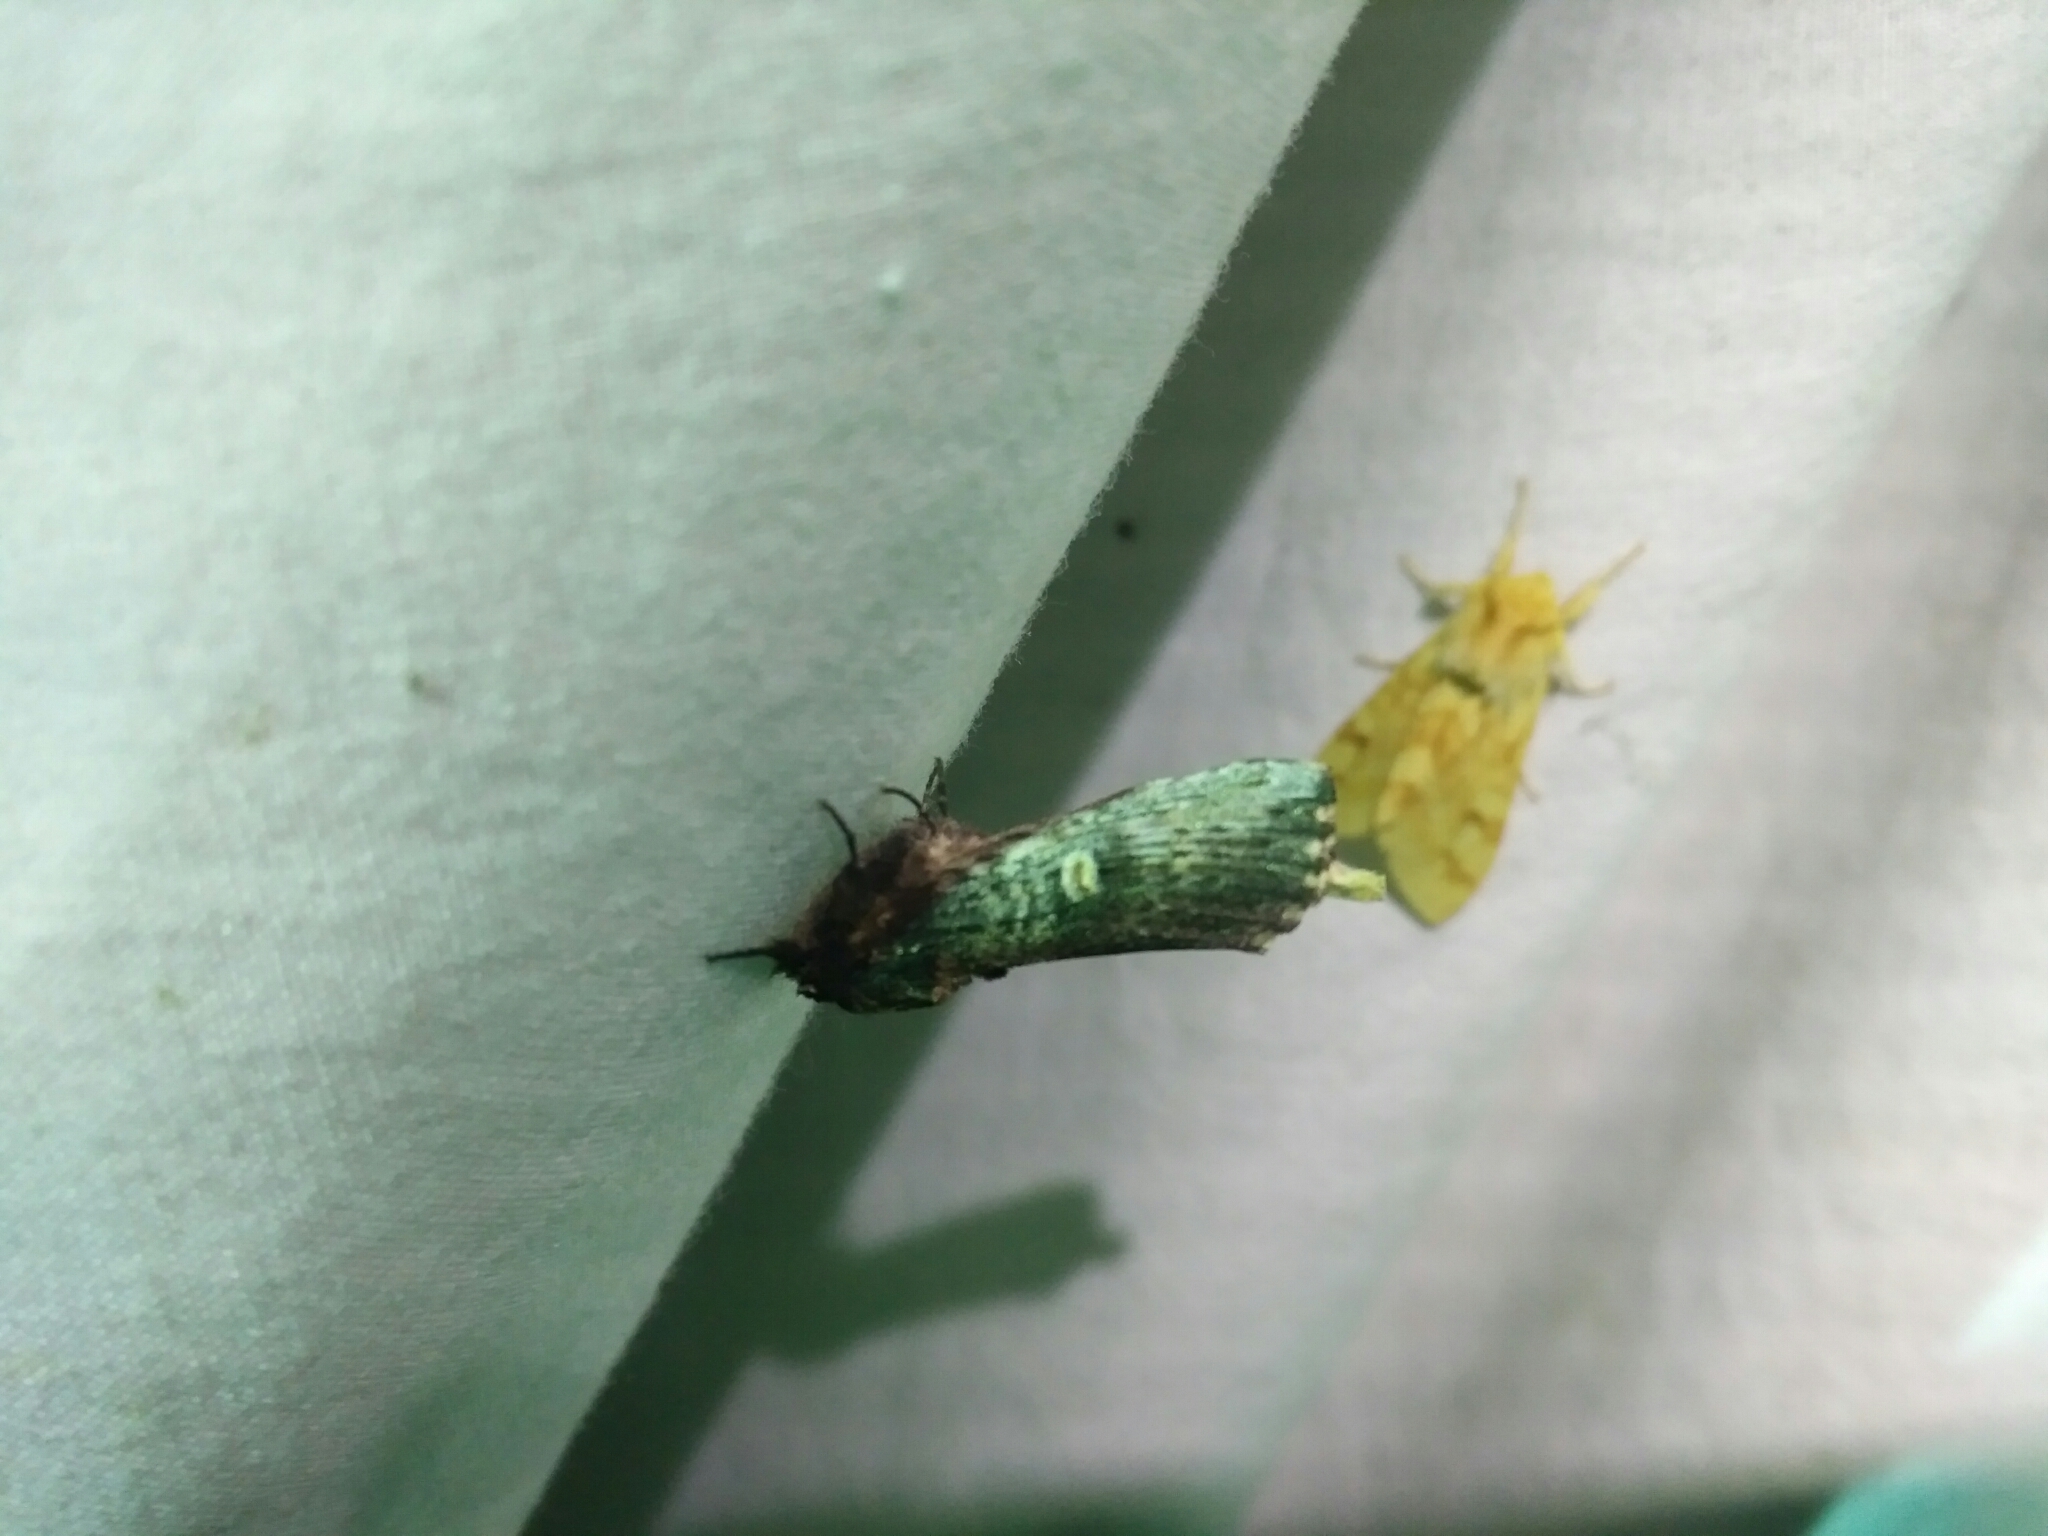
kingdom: Animalia
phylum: Arthropoda
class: Insecta
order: Lepidoptera
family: Notodontidae
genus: Schizura
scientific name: Schizura ipomaeae
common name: Morning-glory prominent
